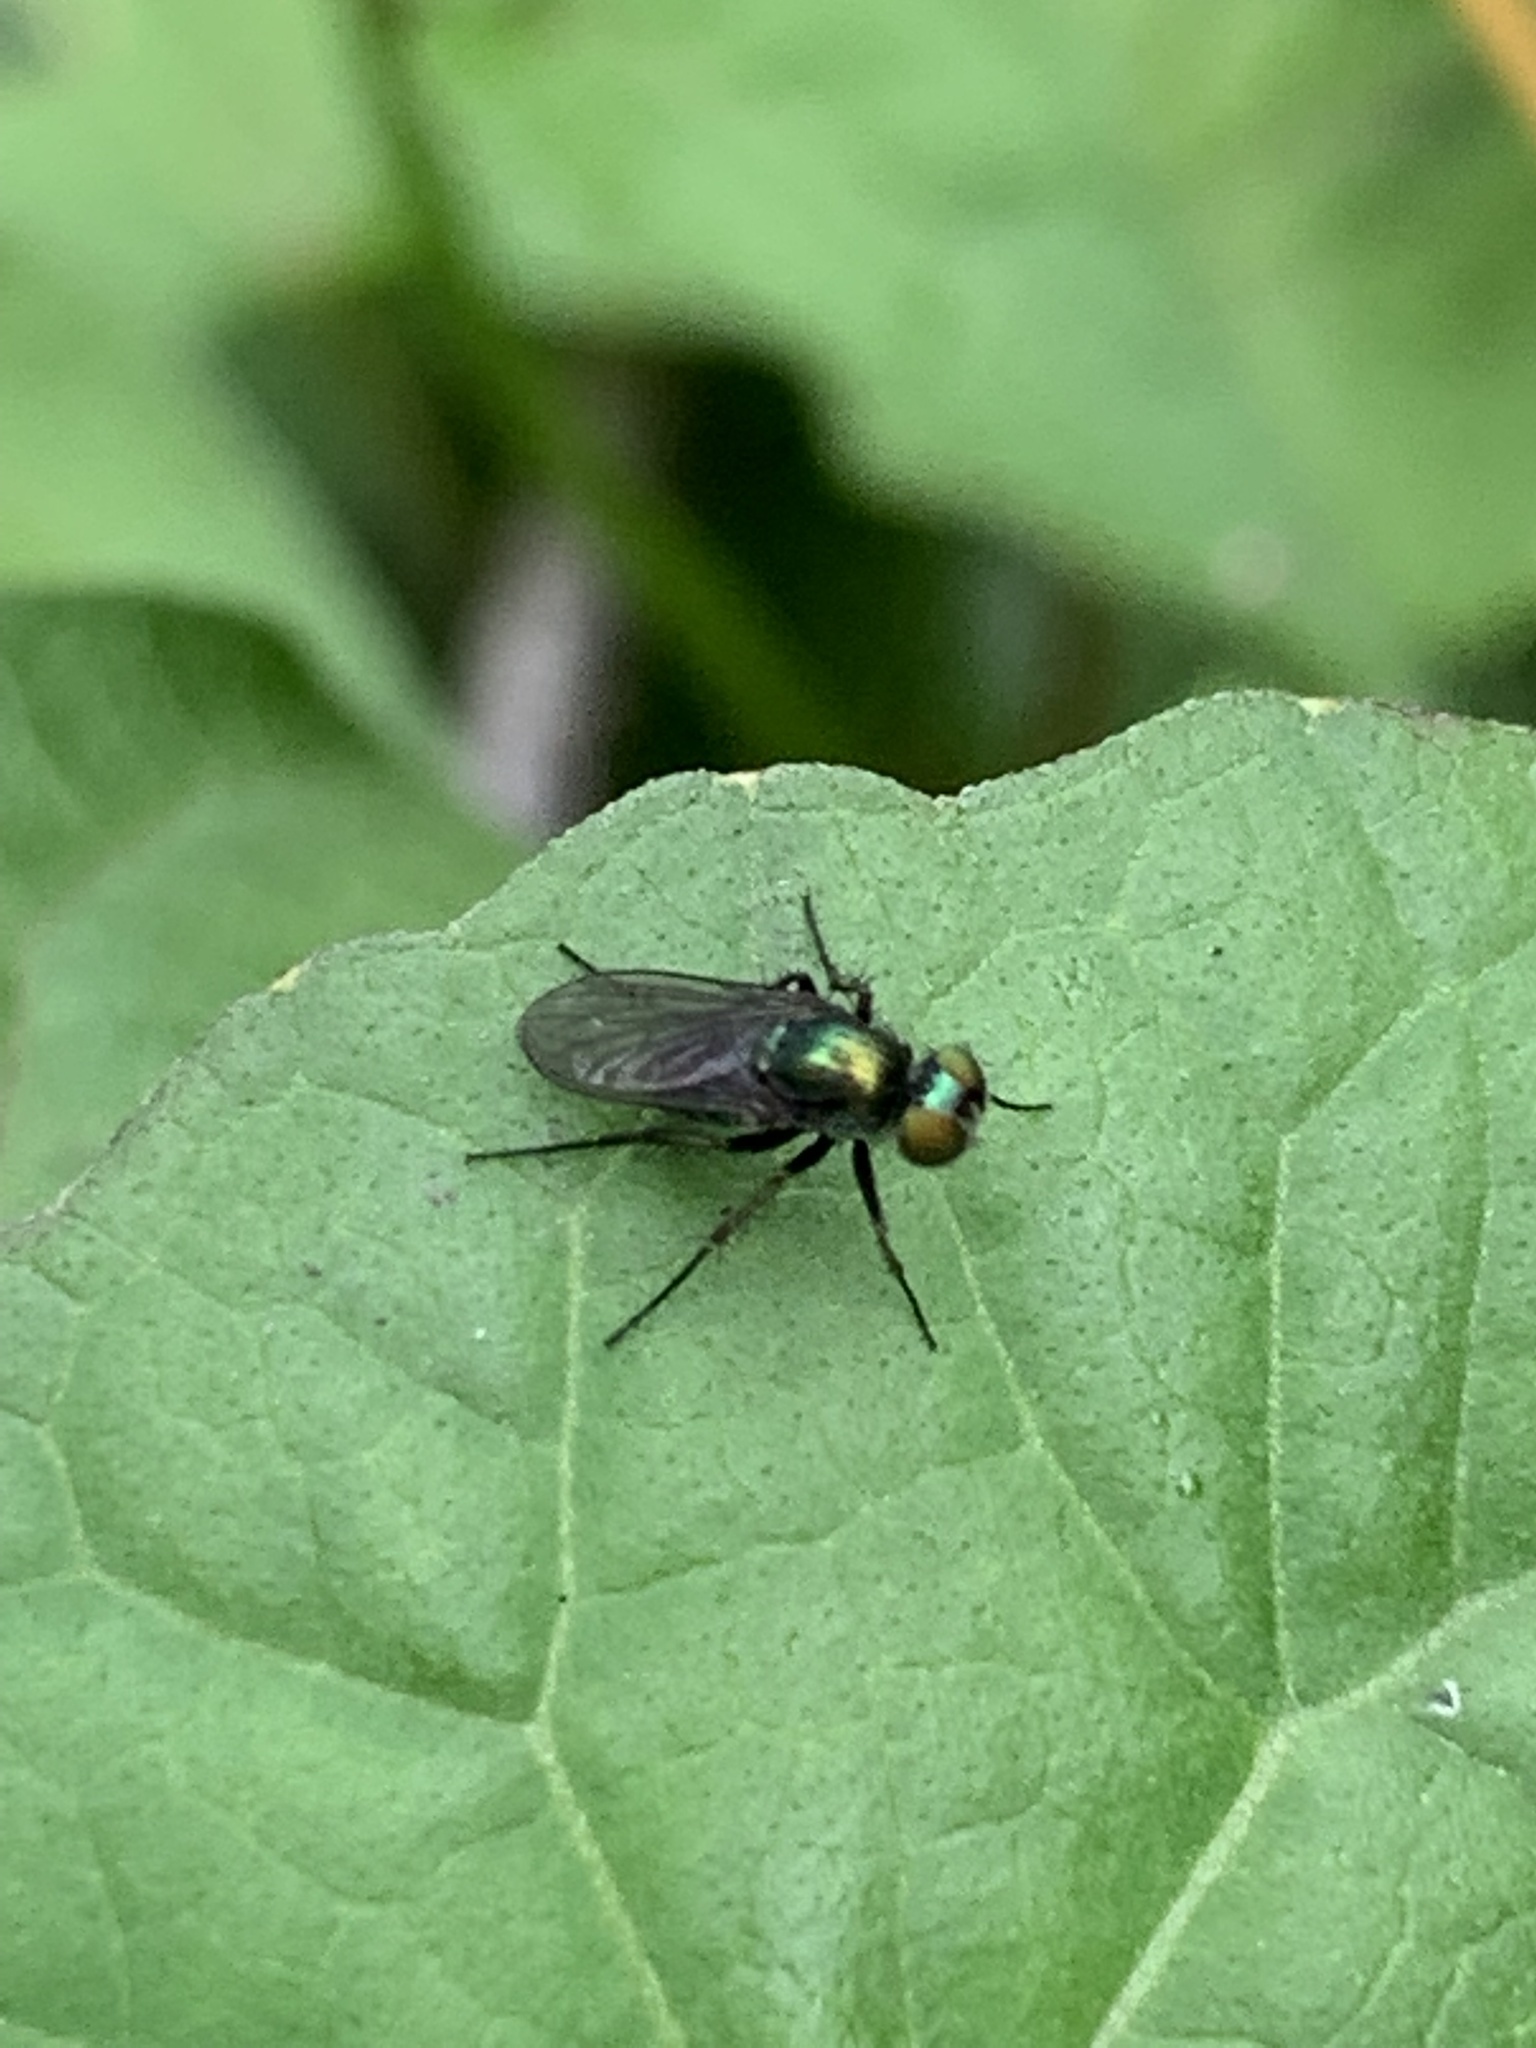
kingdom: Animalia
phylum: Arthropoda
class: Insecta
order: Diptera
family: Dolichopodidae
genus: Dolichopus
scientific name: Dolichopus
